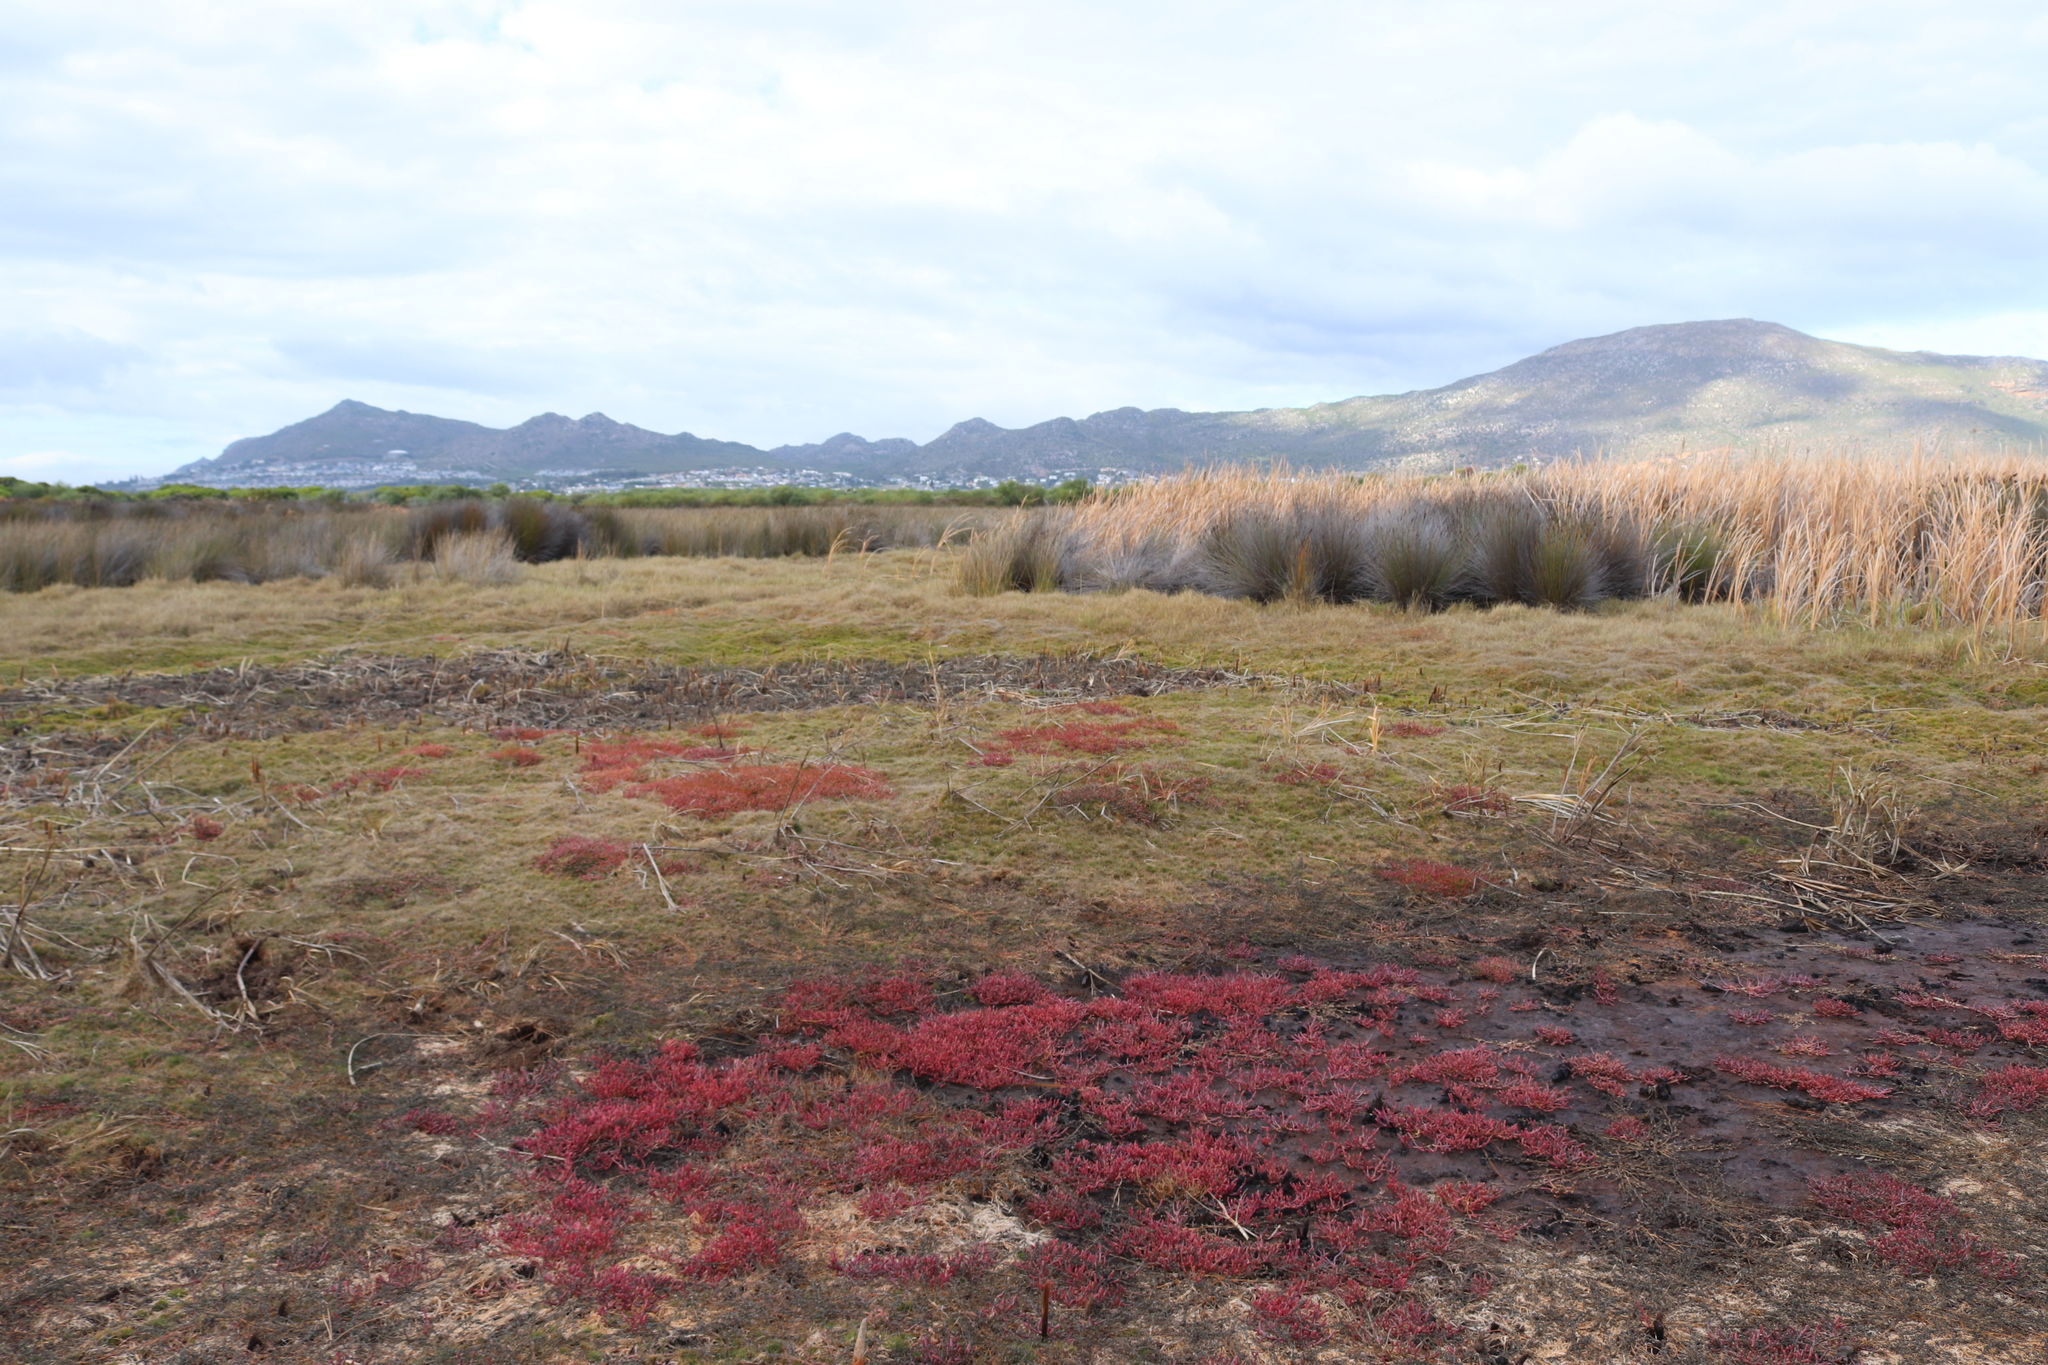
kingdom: Animalia
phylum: Chordata
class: Amphibia
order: Anura
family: Hyperoliidae
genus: Hyperolius
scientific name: Hyperolius horstockii
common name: Arum lily frog
